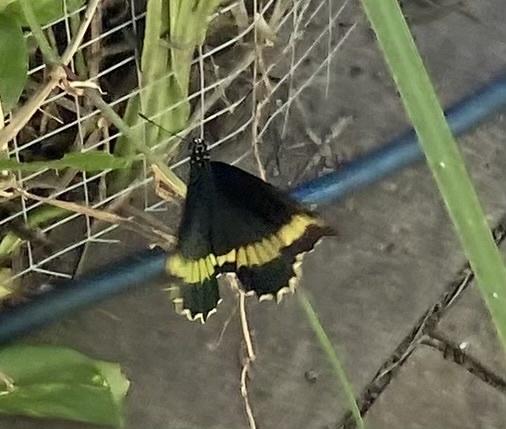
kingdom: Animalia
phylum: Arthropoda
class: Insecta
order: Lepidoptera
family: Papilionidae
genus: Battus
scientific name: Battus polydamas
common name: Polydamas swallowtail
